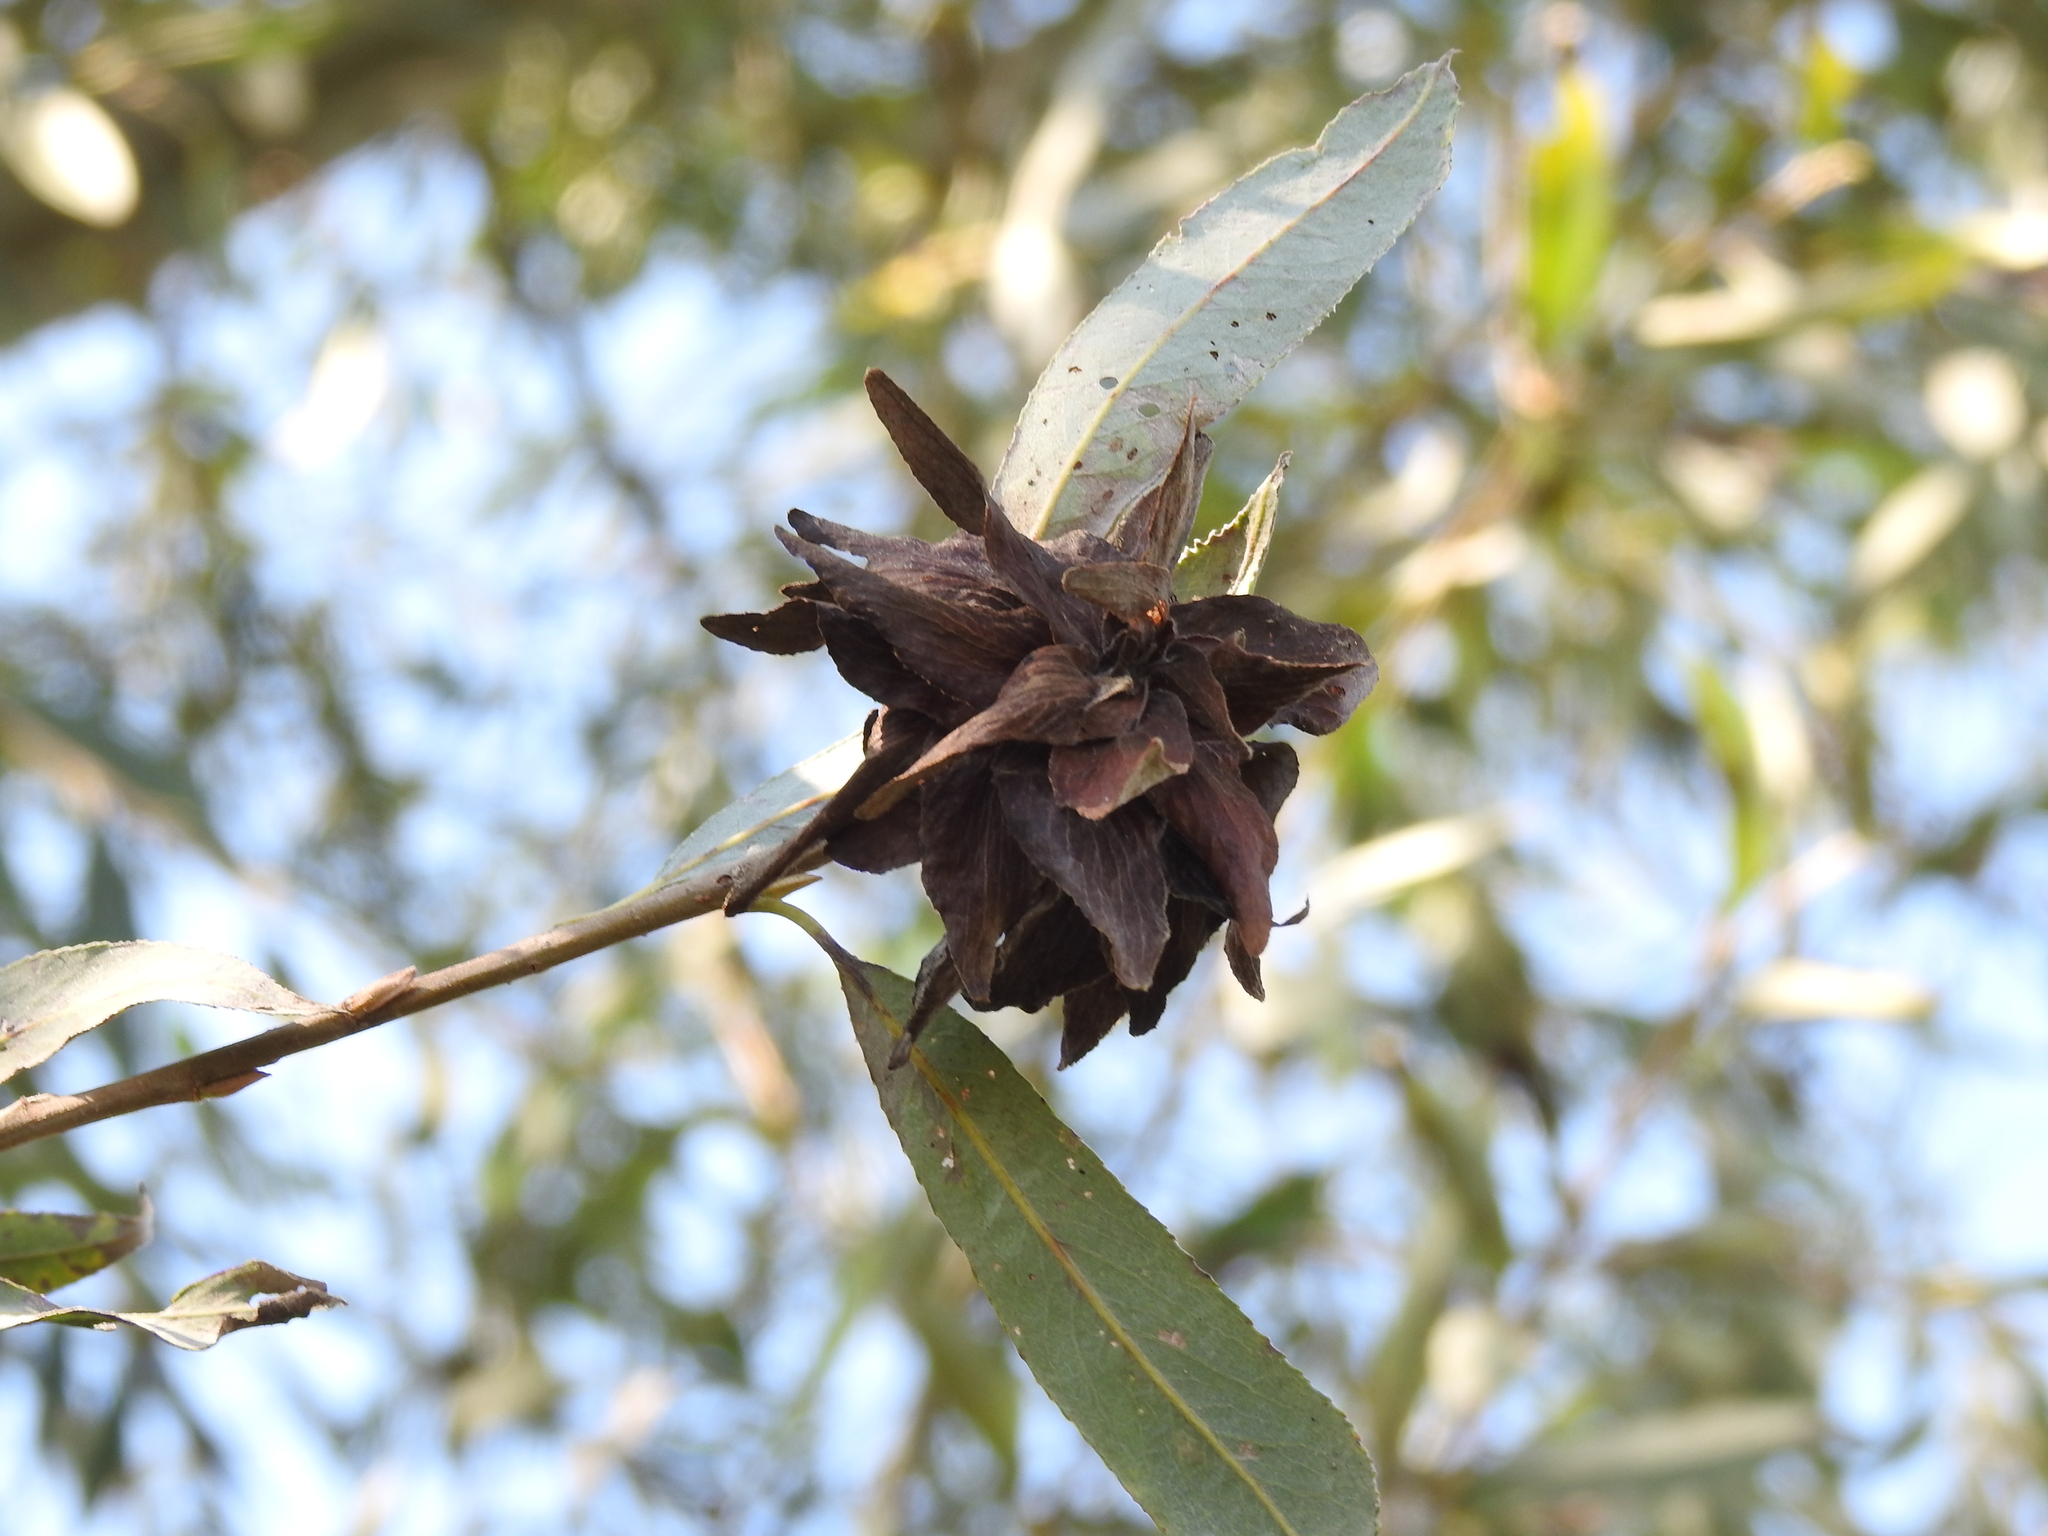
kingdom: Animalia
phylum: Arthropoda
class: Insecta
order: Diptera
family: Cecidomyiidae
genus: Rabdophaga
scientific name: Rabdophaga rosaria
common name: Willow rose gall midge
